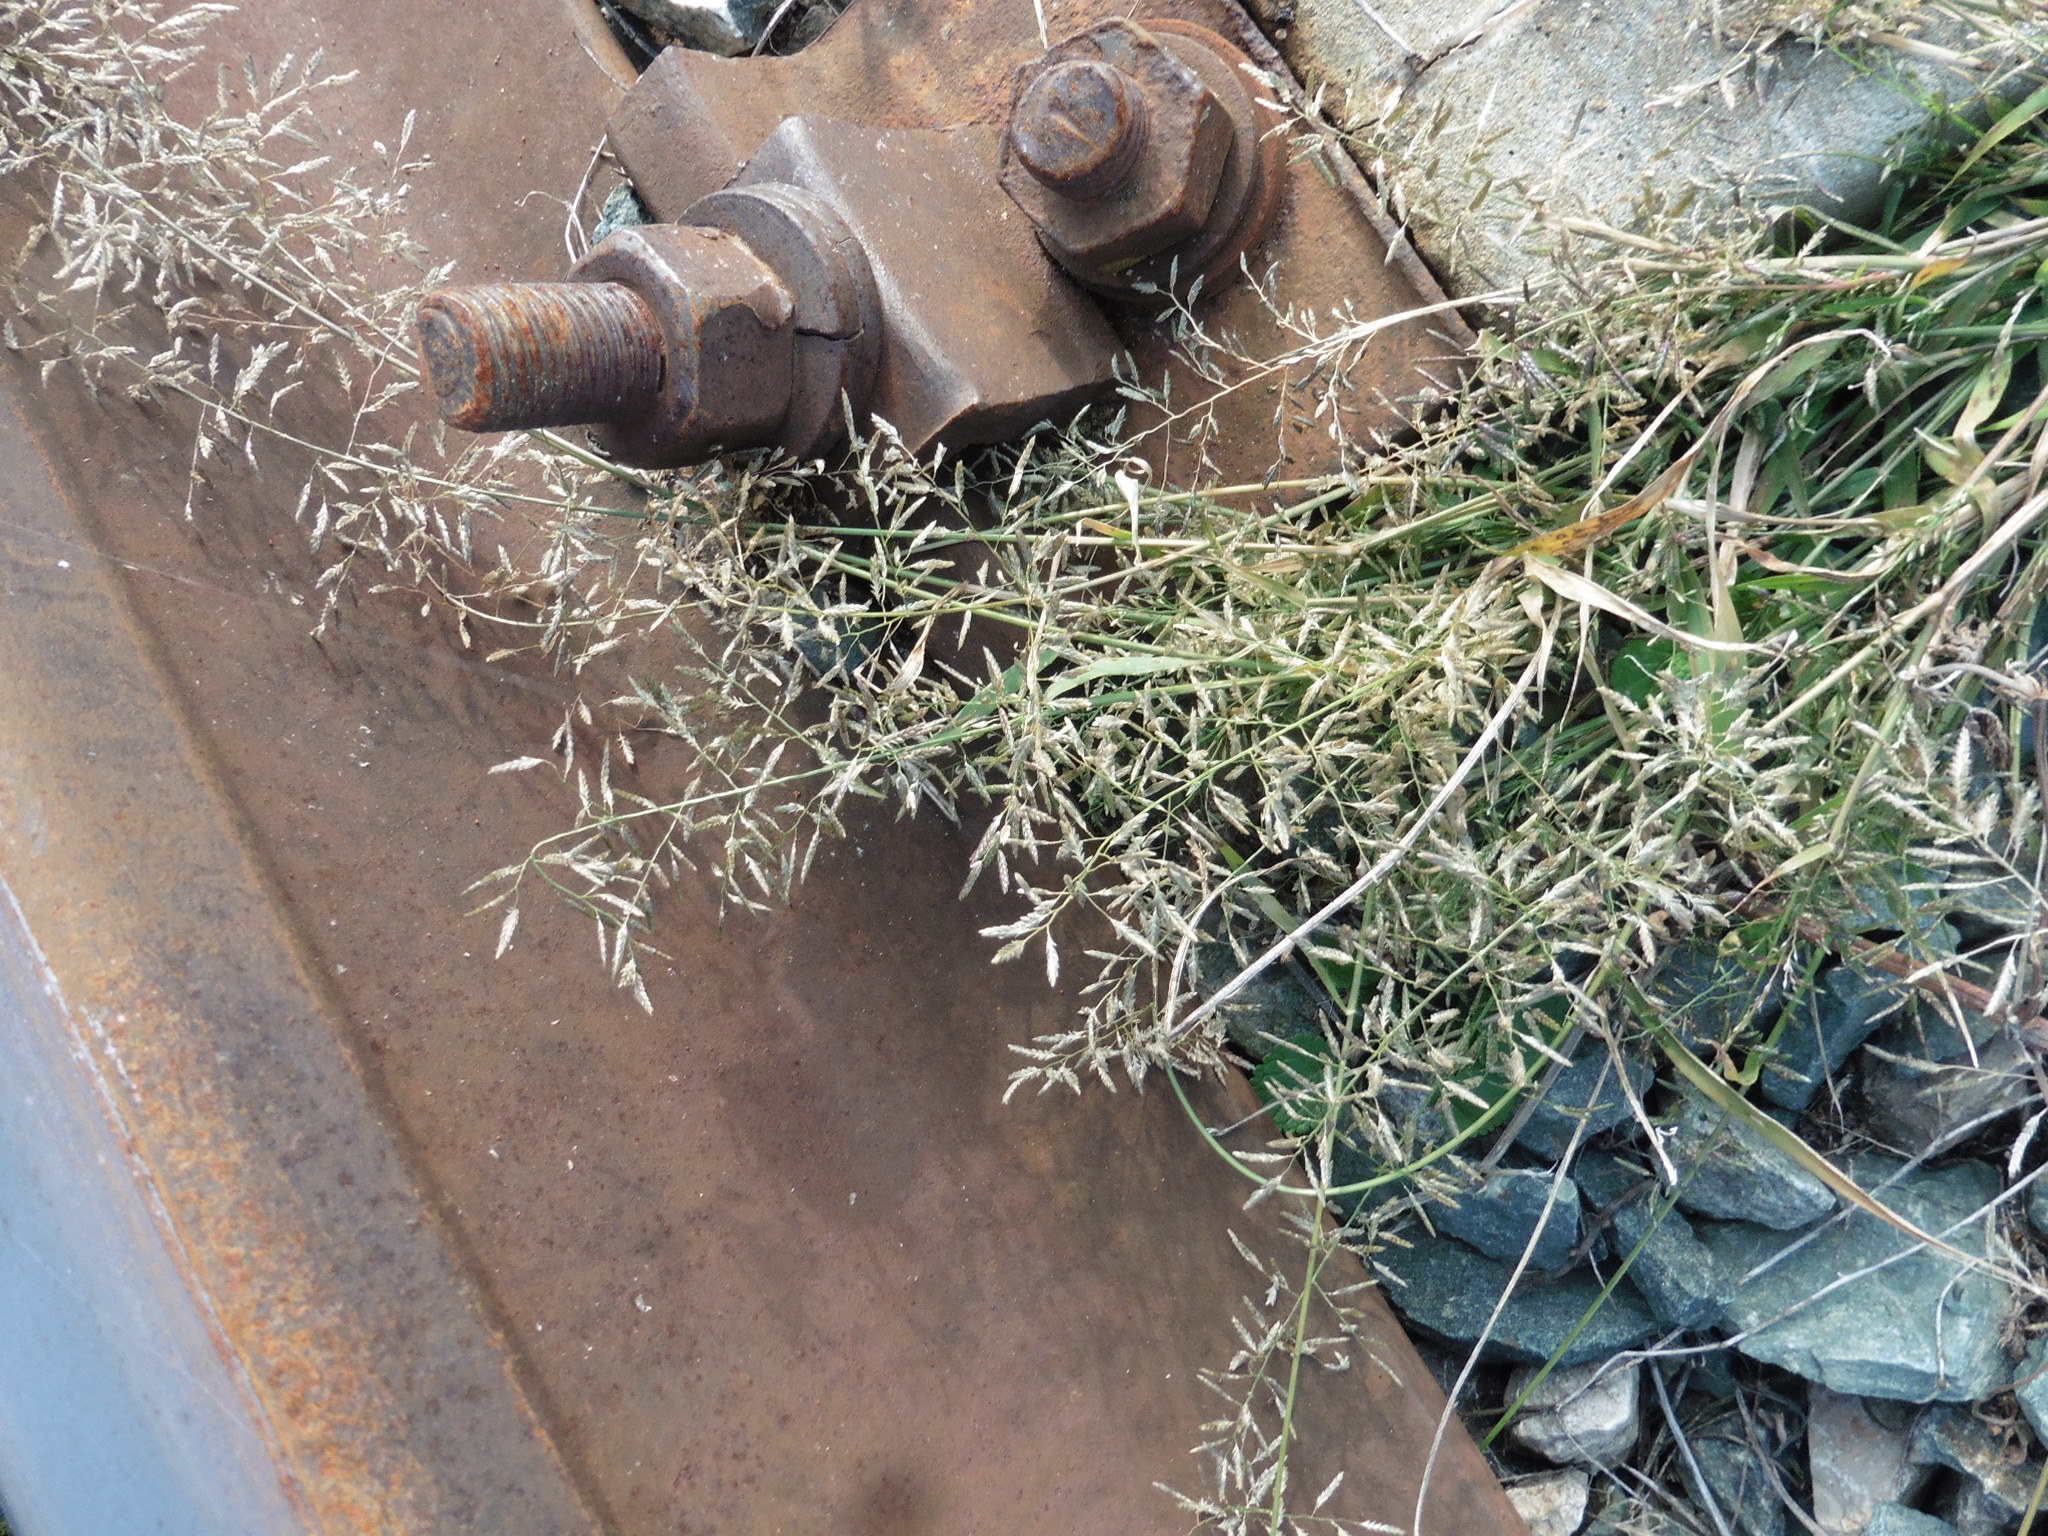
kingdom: Plantae
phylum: Tracheophyta
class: Liliopsida
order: Poales
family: Poaceae
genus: Eragrostis
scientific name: Eragrostis minor
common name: Small love-grass
